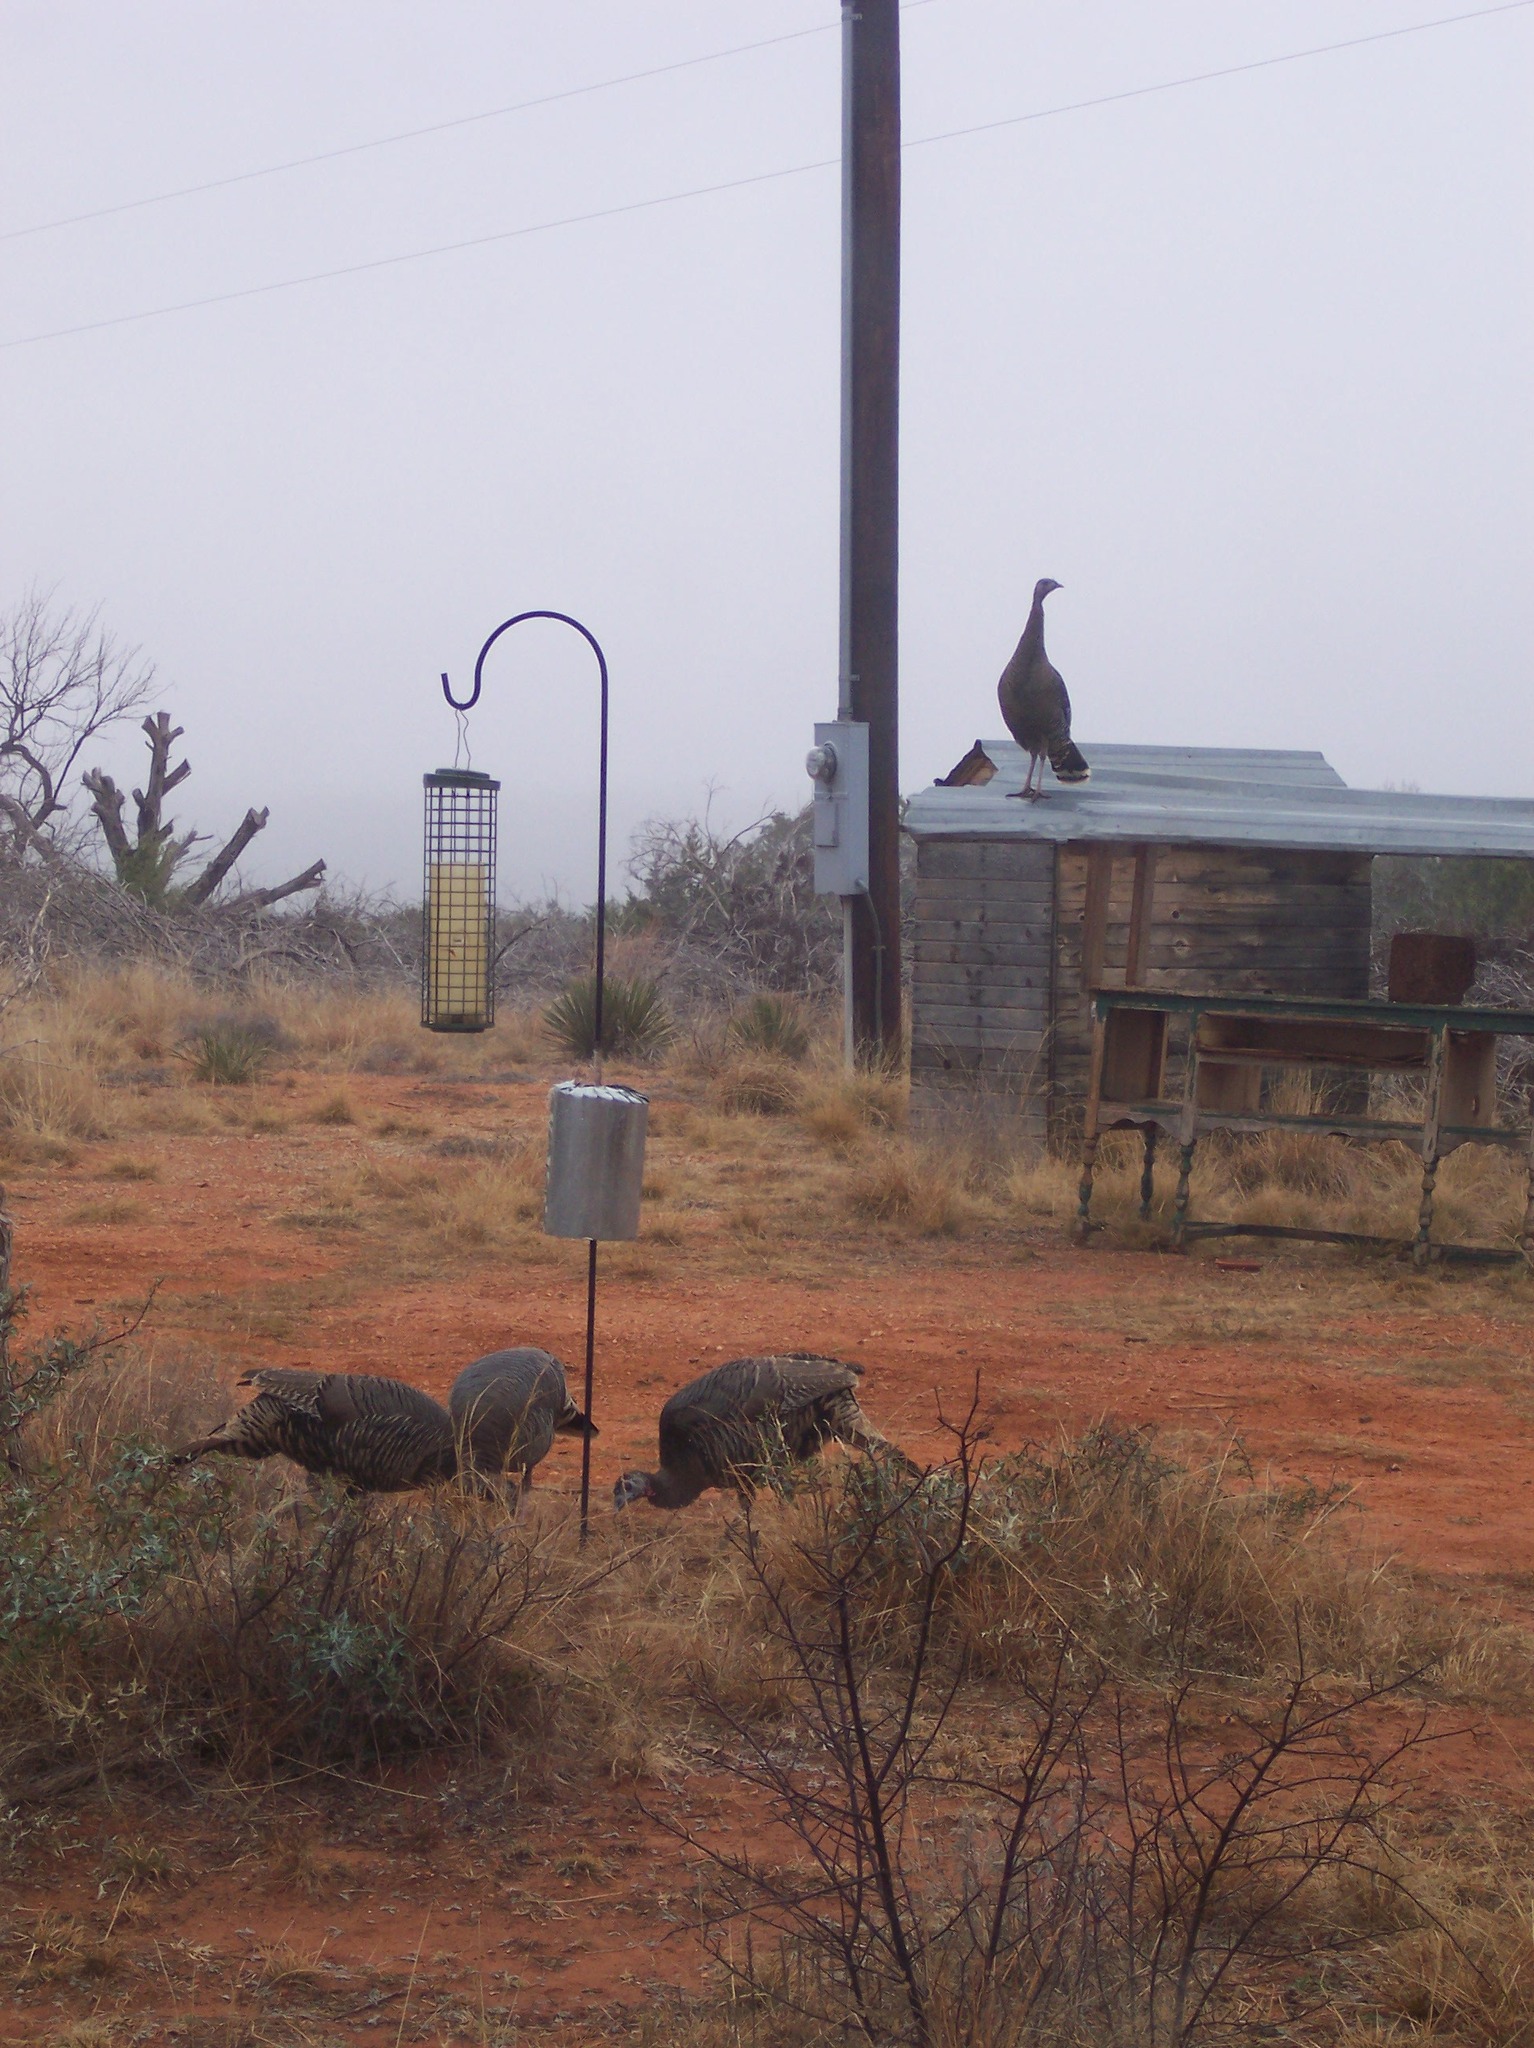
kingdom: Animalia
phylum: Chordata
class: Aves
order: Galliformes
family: Phasianidae
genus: Meleagris
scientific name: Meleagris gallopavo
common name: Wild turkey
